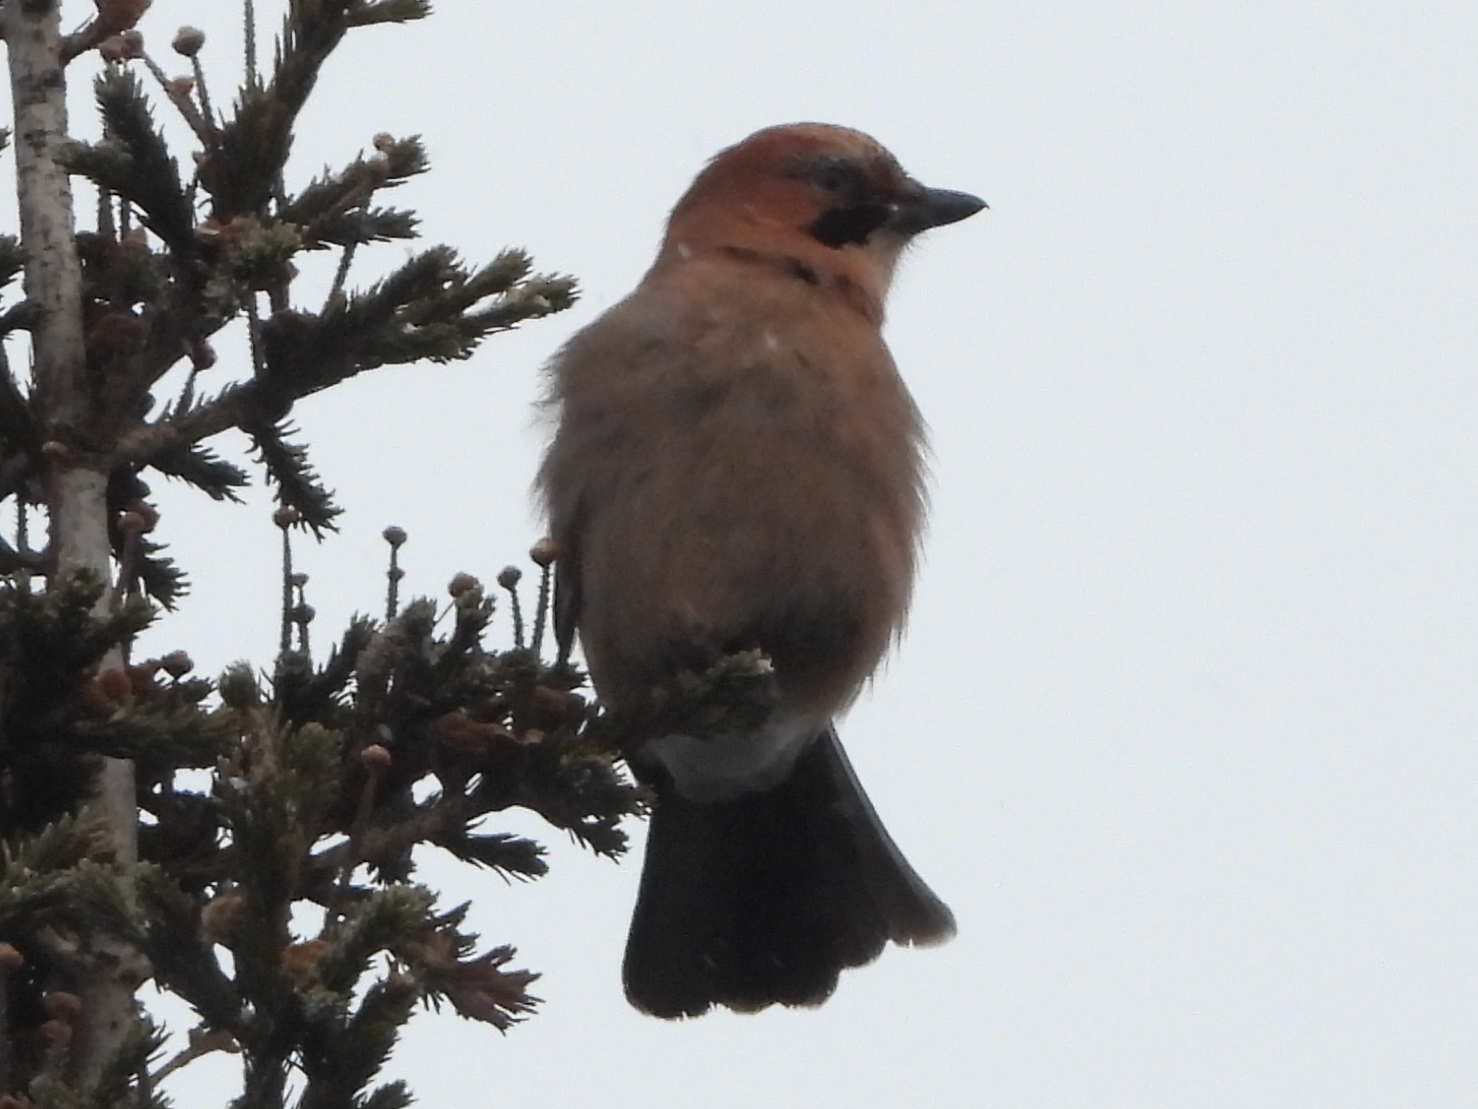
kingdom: Animalia
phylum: Chordata
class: Aves
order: Passeriformes
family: Corvidae
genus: Garrulus
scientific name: Garrulus glandarius
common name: Eurasian jay
